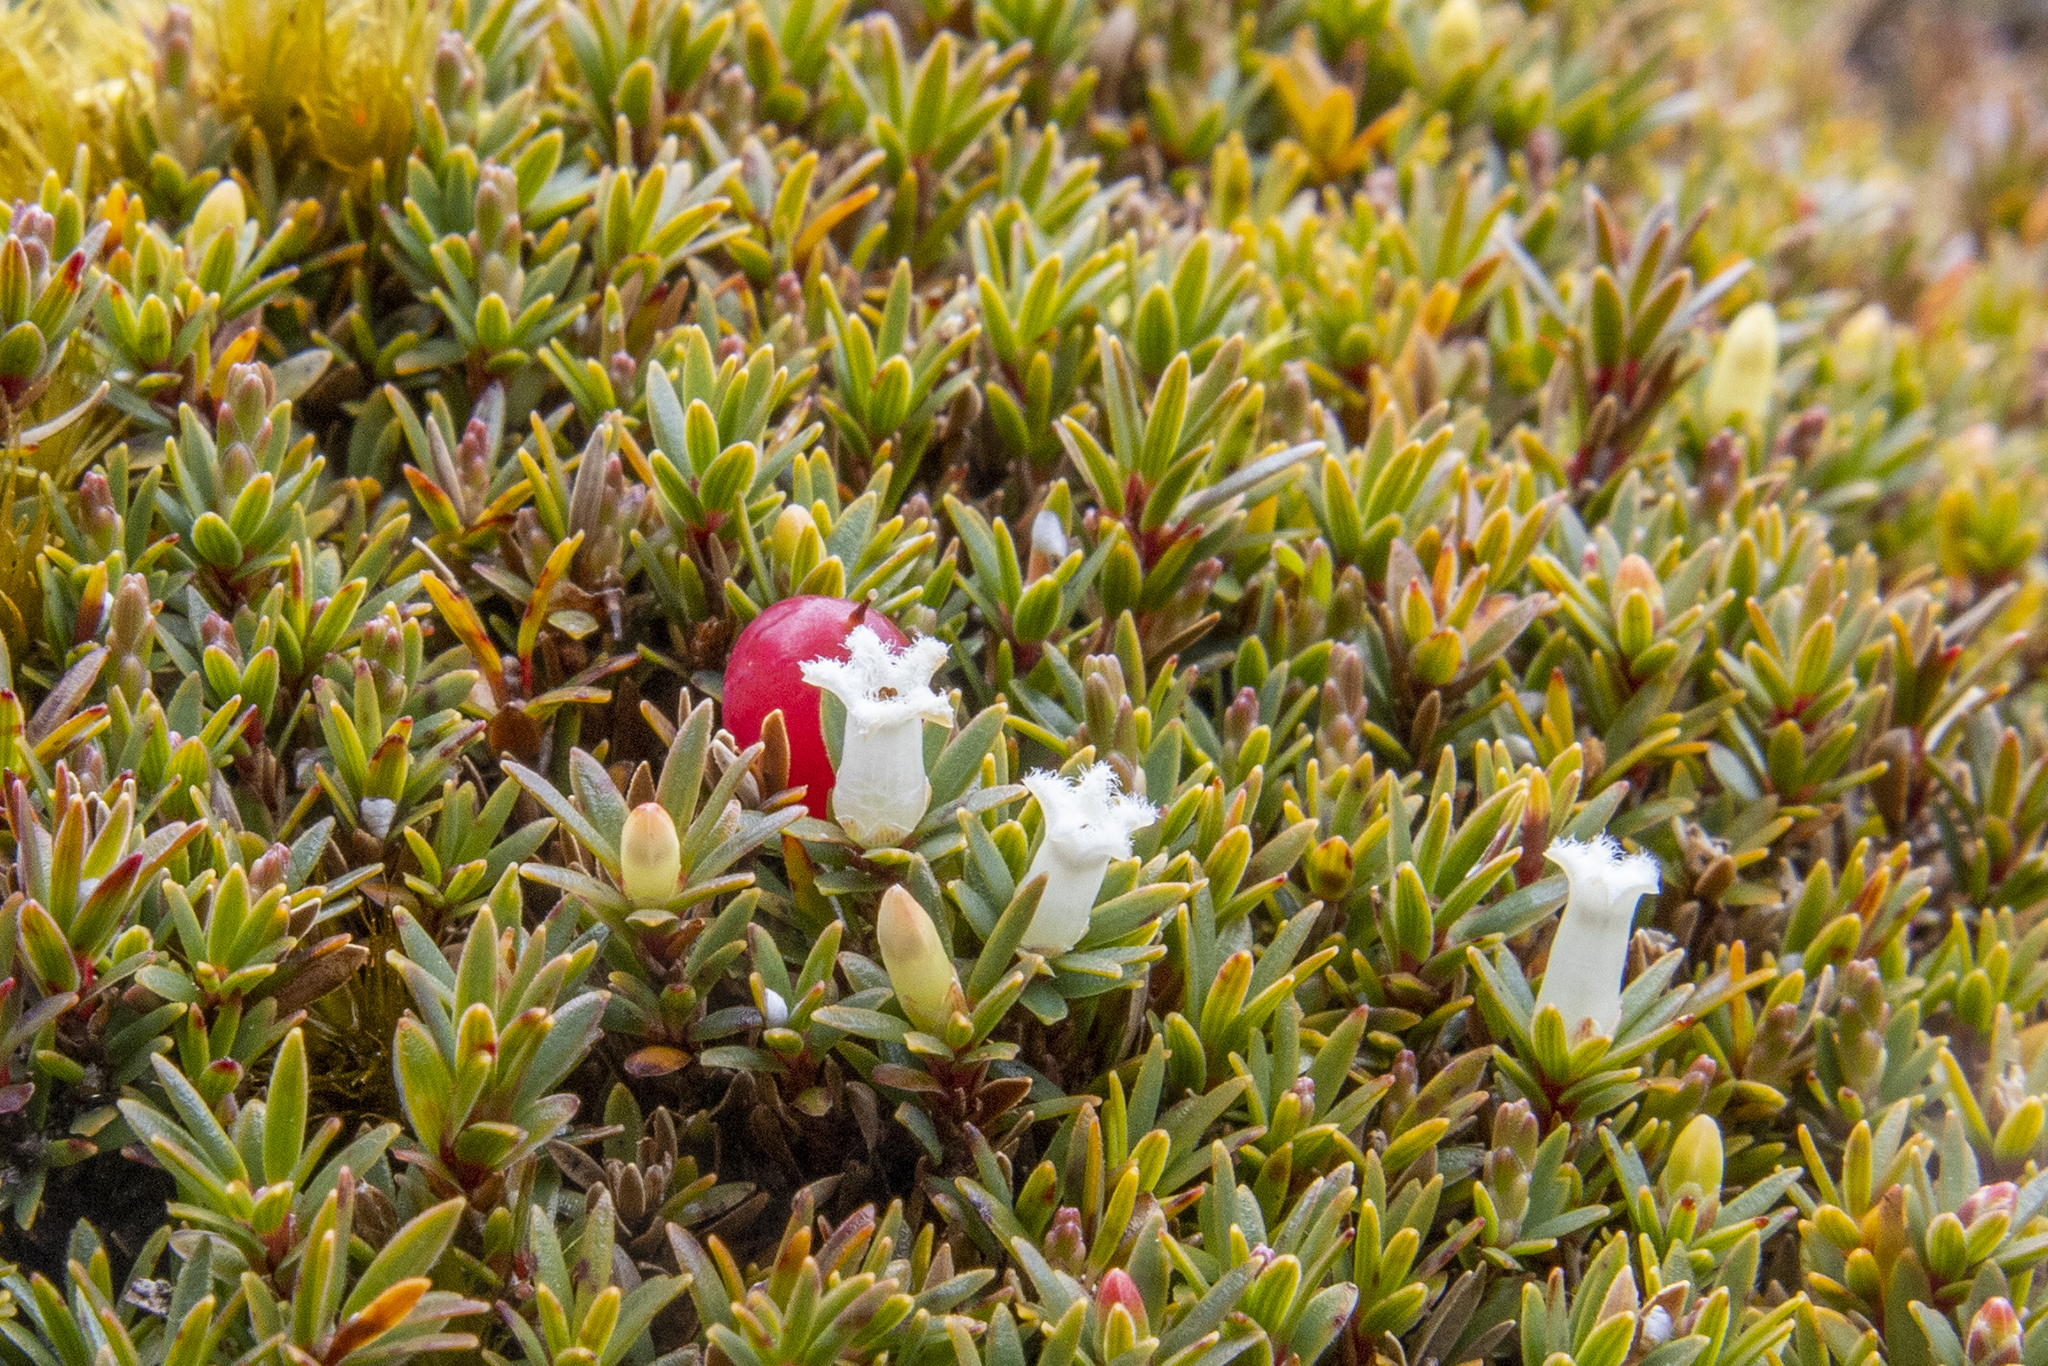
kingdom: Plantae
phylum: Tracheophyta
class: Magnoliopsida
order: Ericales
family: Ericaceae
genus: Pentachondra
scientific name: Pentachondra pumila
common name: Carpet-heath
